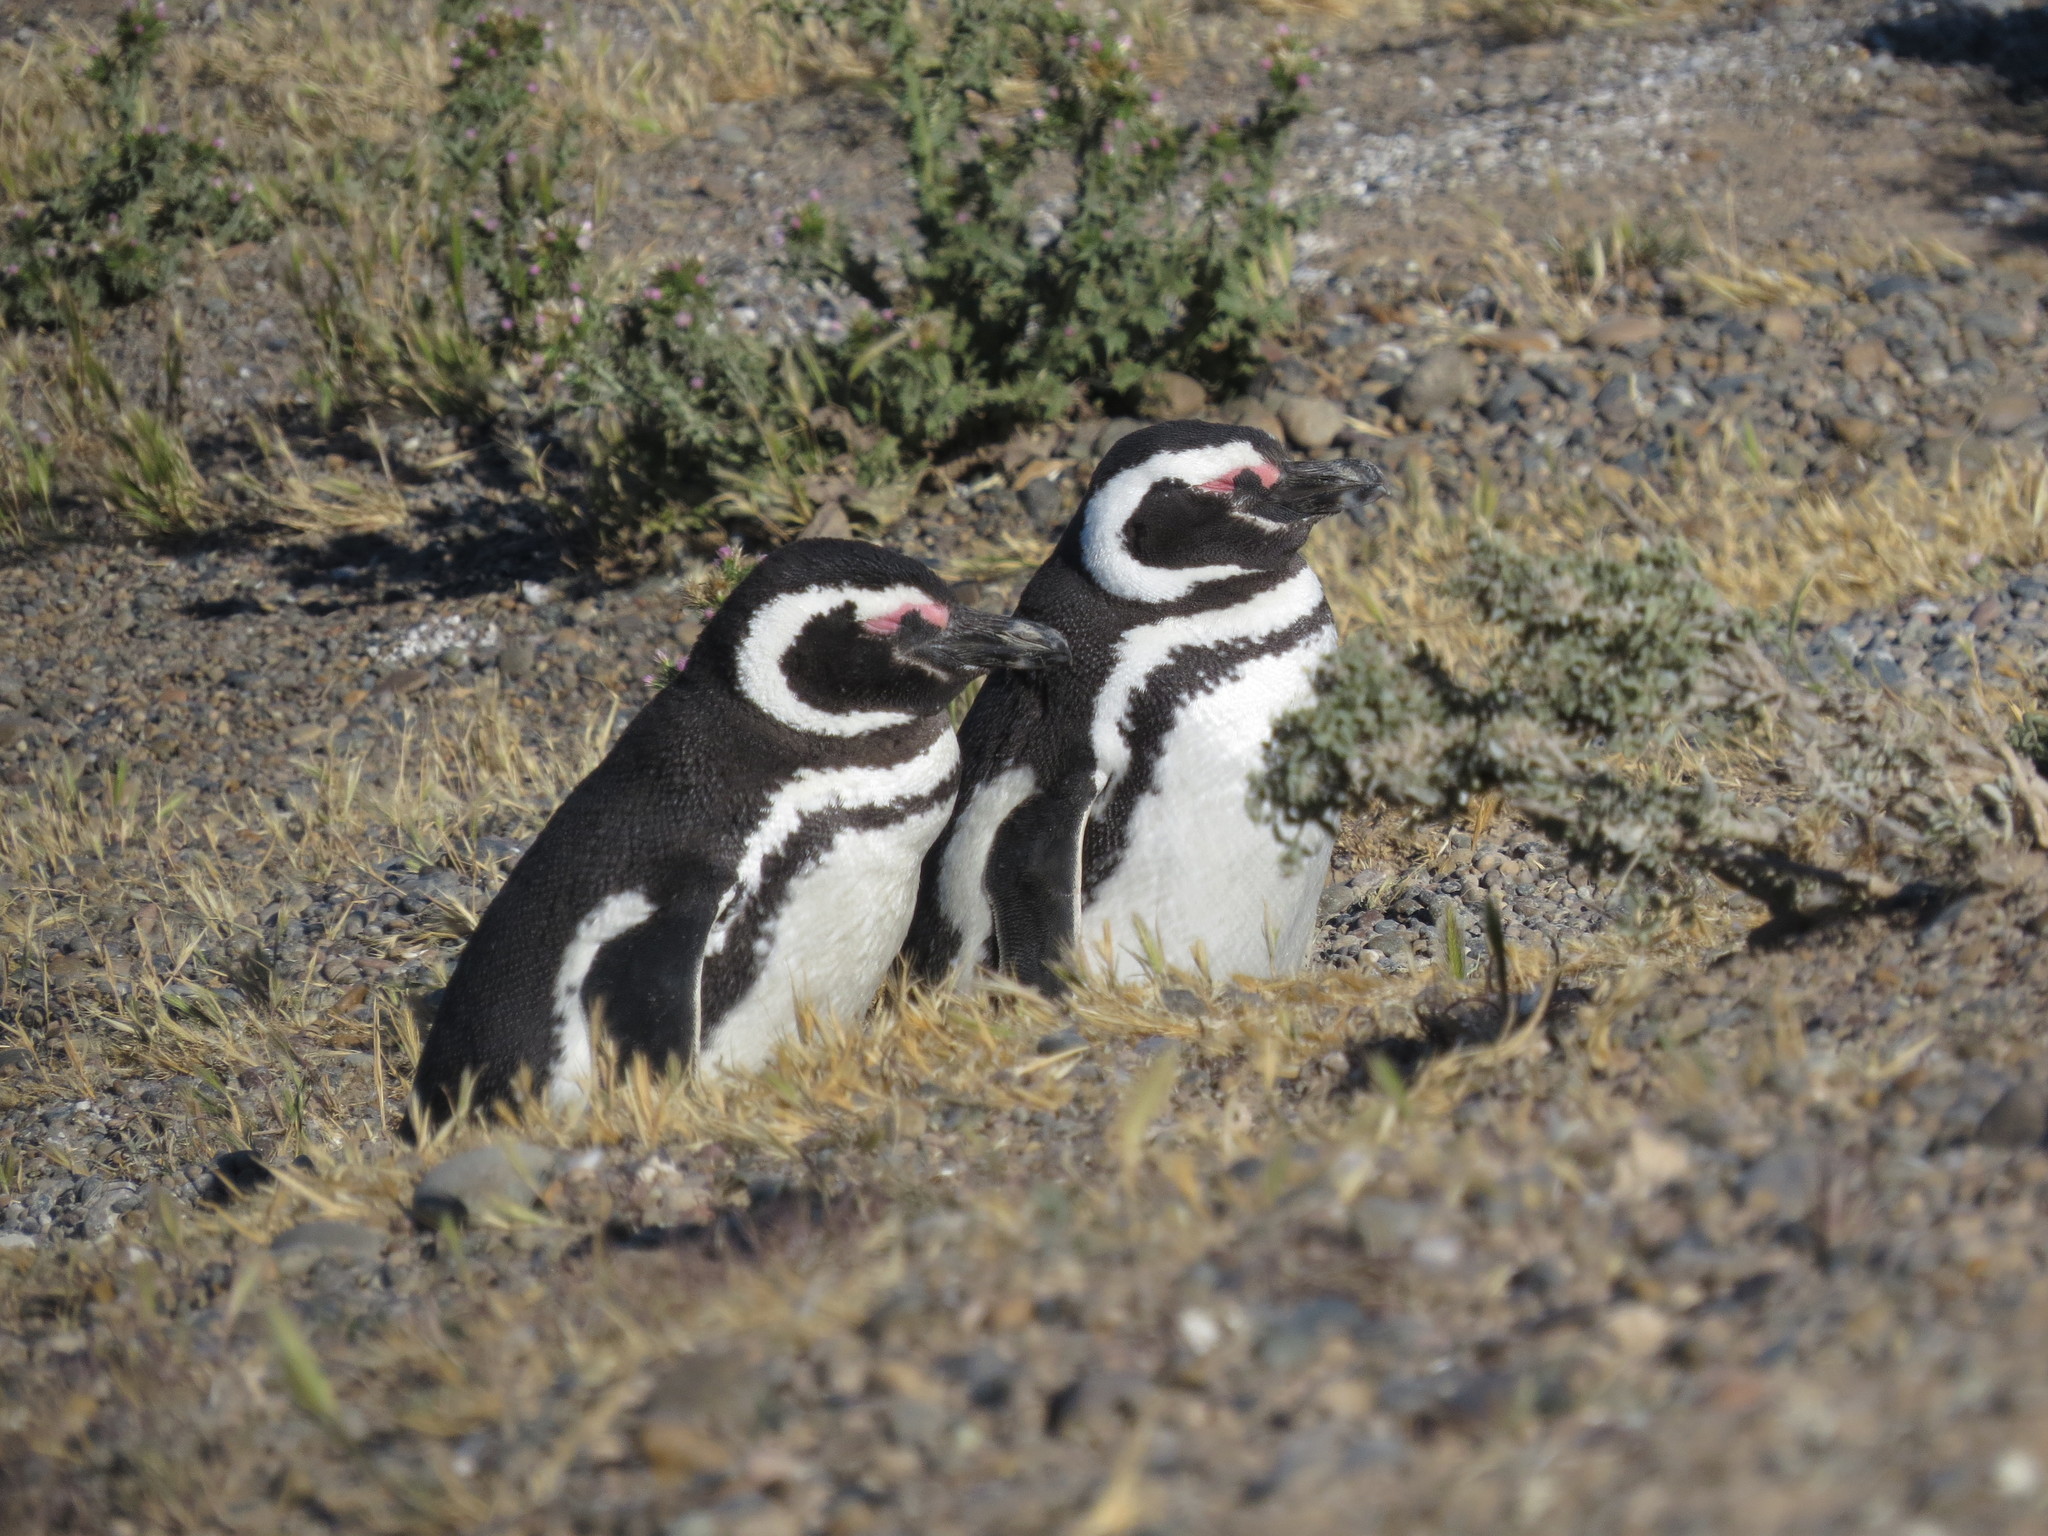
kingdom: Animalia
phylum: Chordata
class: Aves
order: Sphenisciformes
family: Spheniscidae
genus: Spheniscus
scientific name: Spheniscus magellanicus
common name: Magellanic penguin
